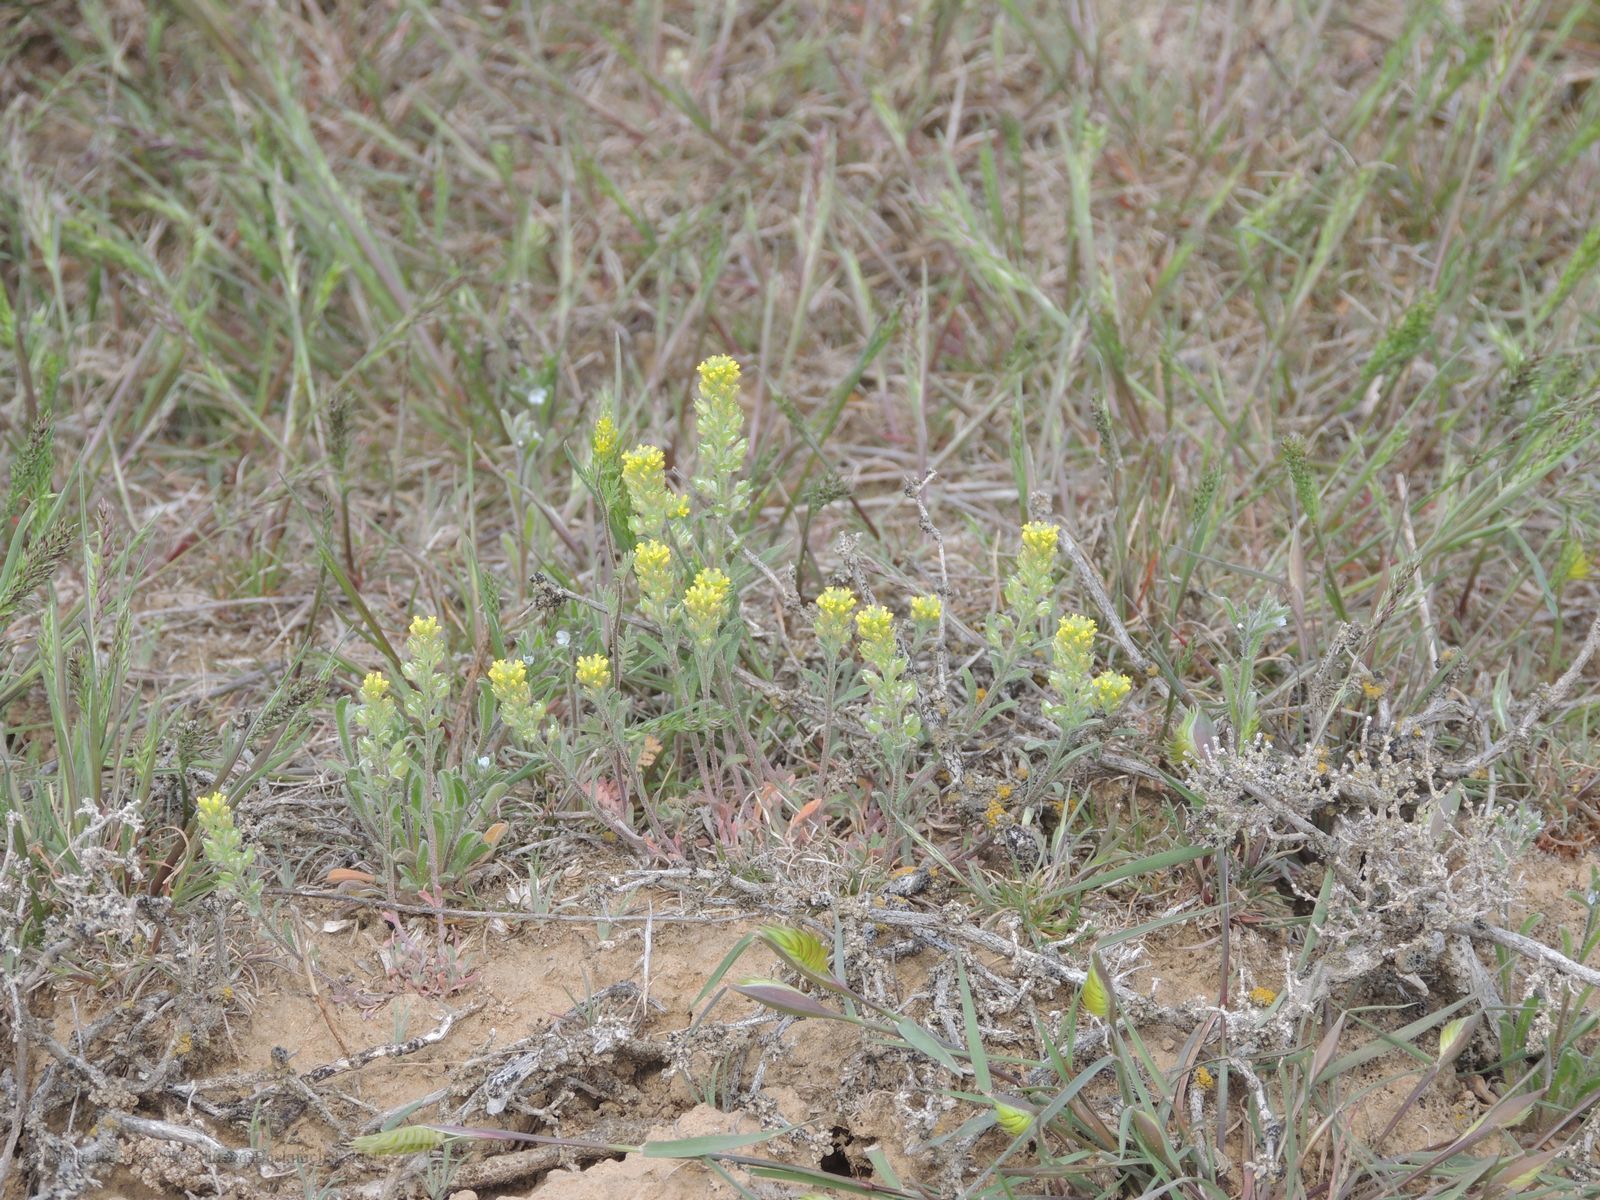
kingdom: Plantae
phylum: Tracheophyta
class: Magnoliopsida
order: Brassicales
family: Brassicaceae
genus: Alyssum
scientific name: Alyssum turkestanicum
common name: Desert alyssum
